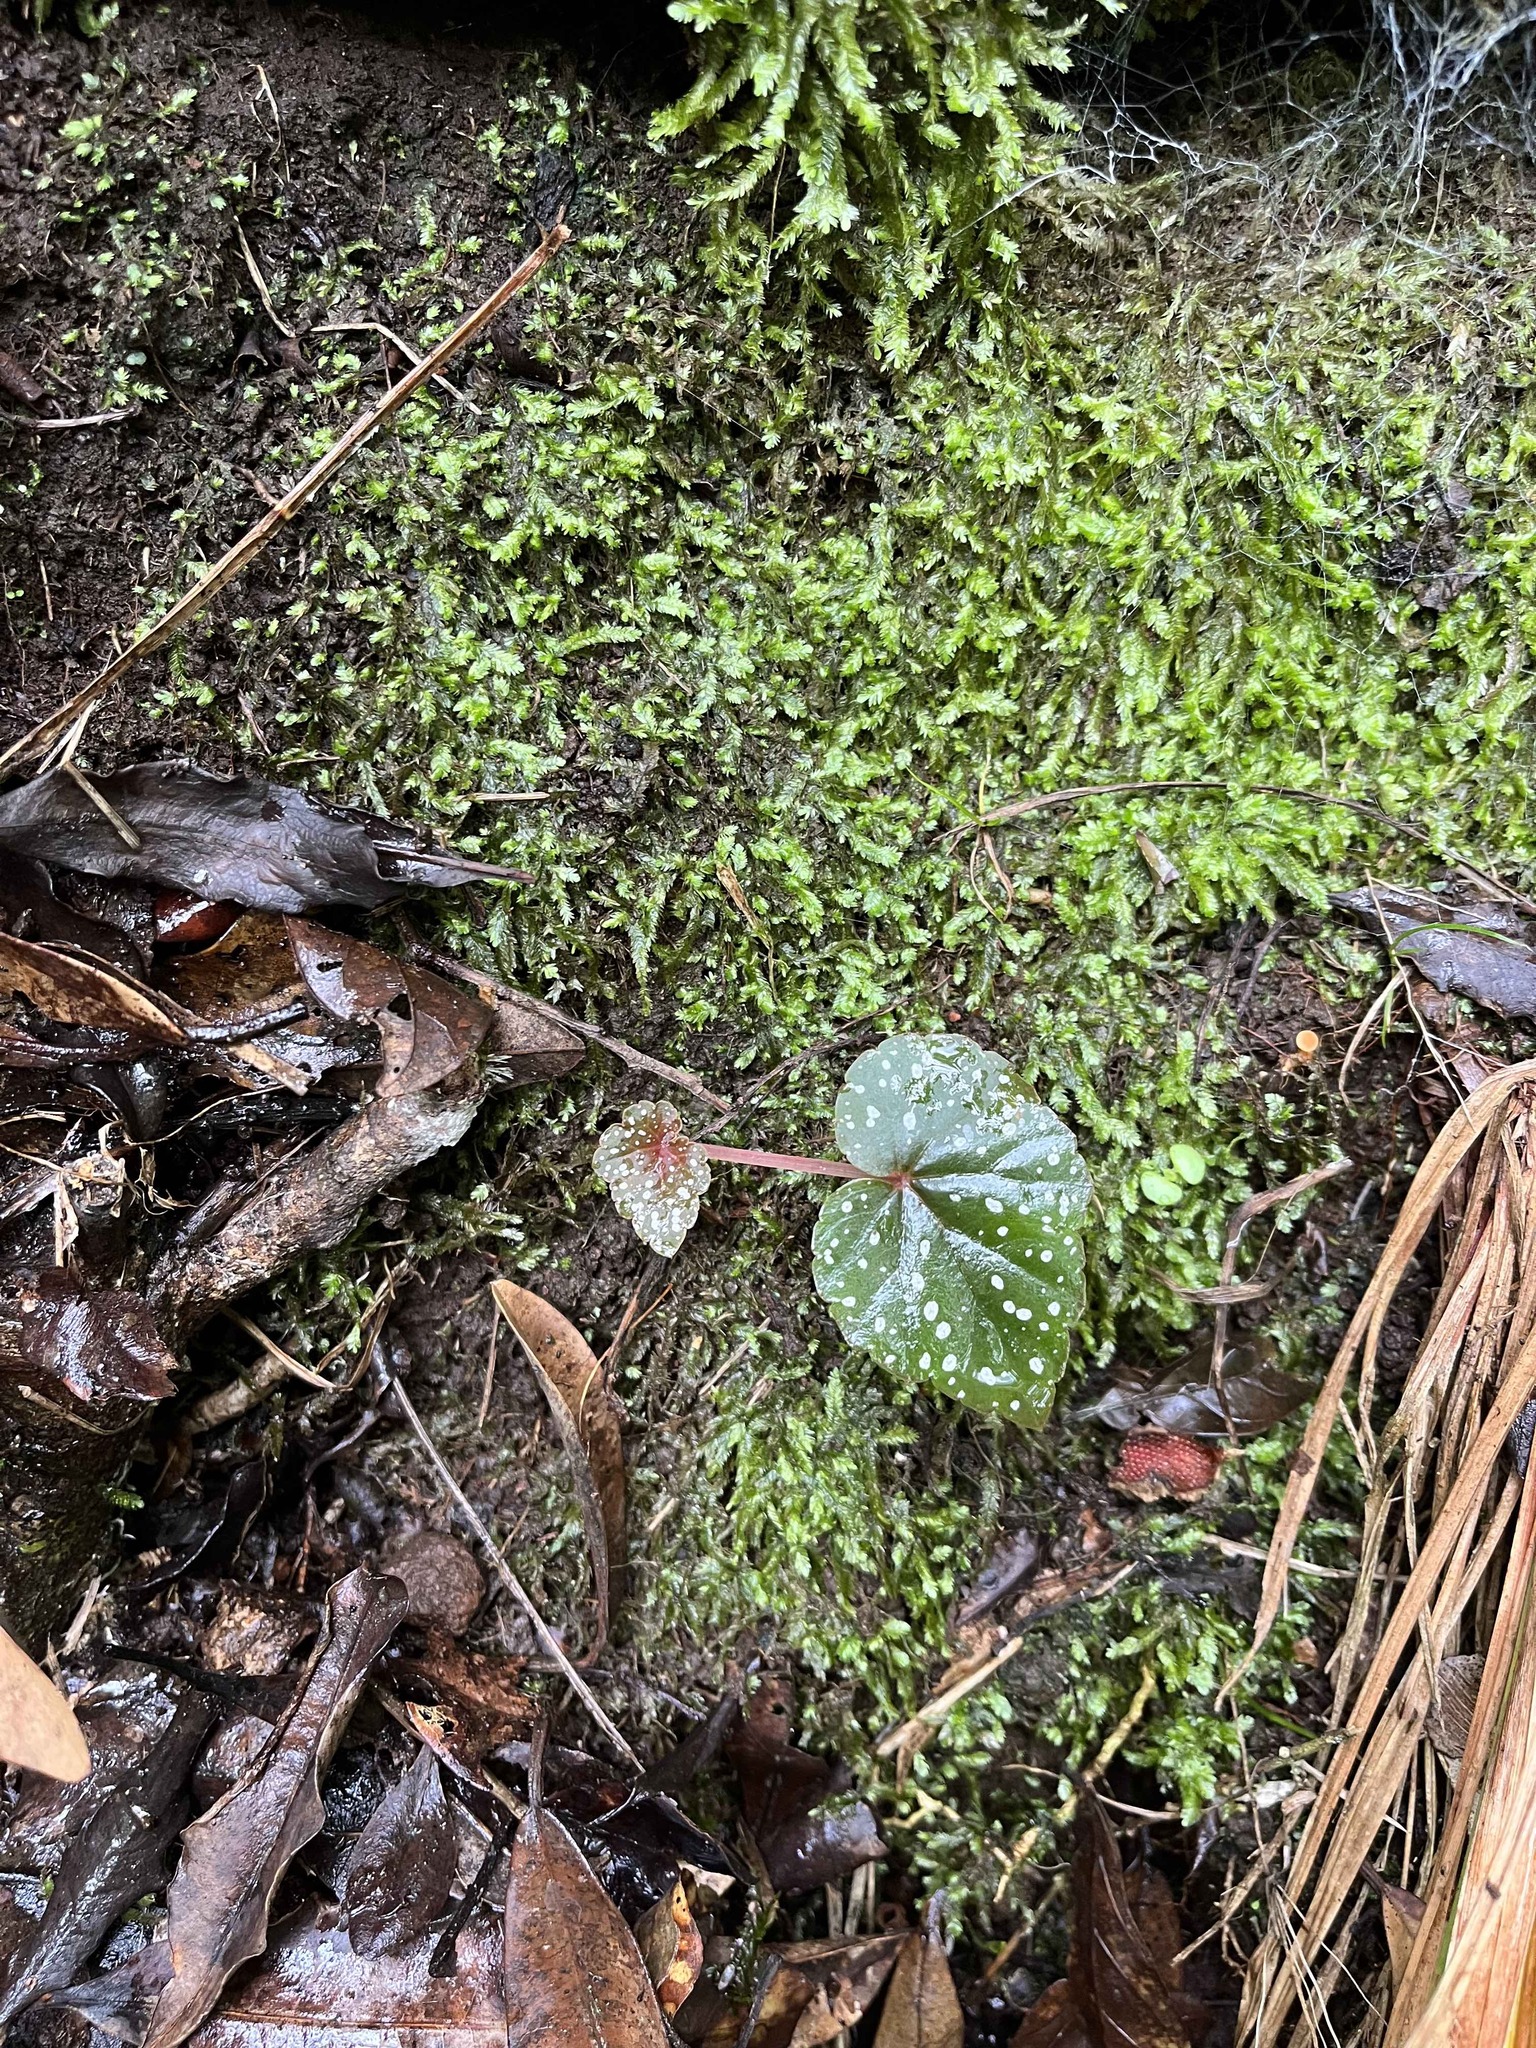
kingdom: Plantae
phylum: Tracheophyta
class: Magnoliopsida
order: Cucurbitales
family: Begoniaceae
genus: Begonia
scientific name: Begonia sonderiana
